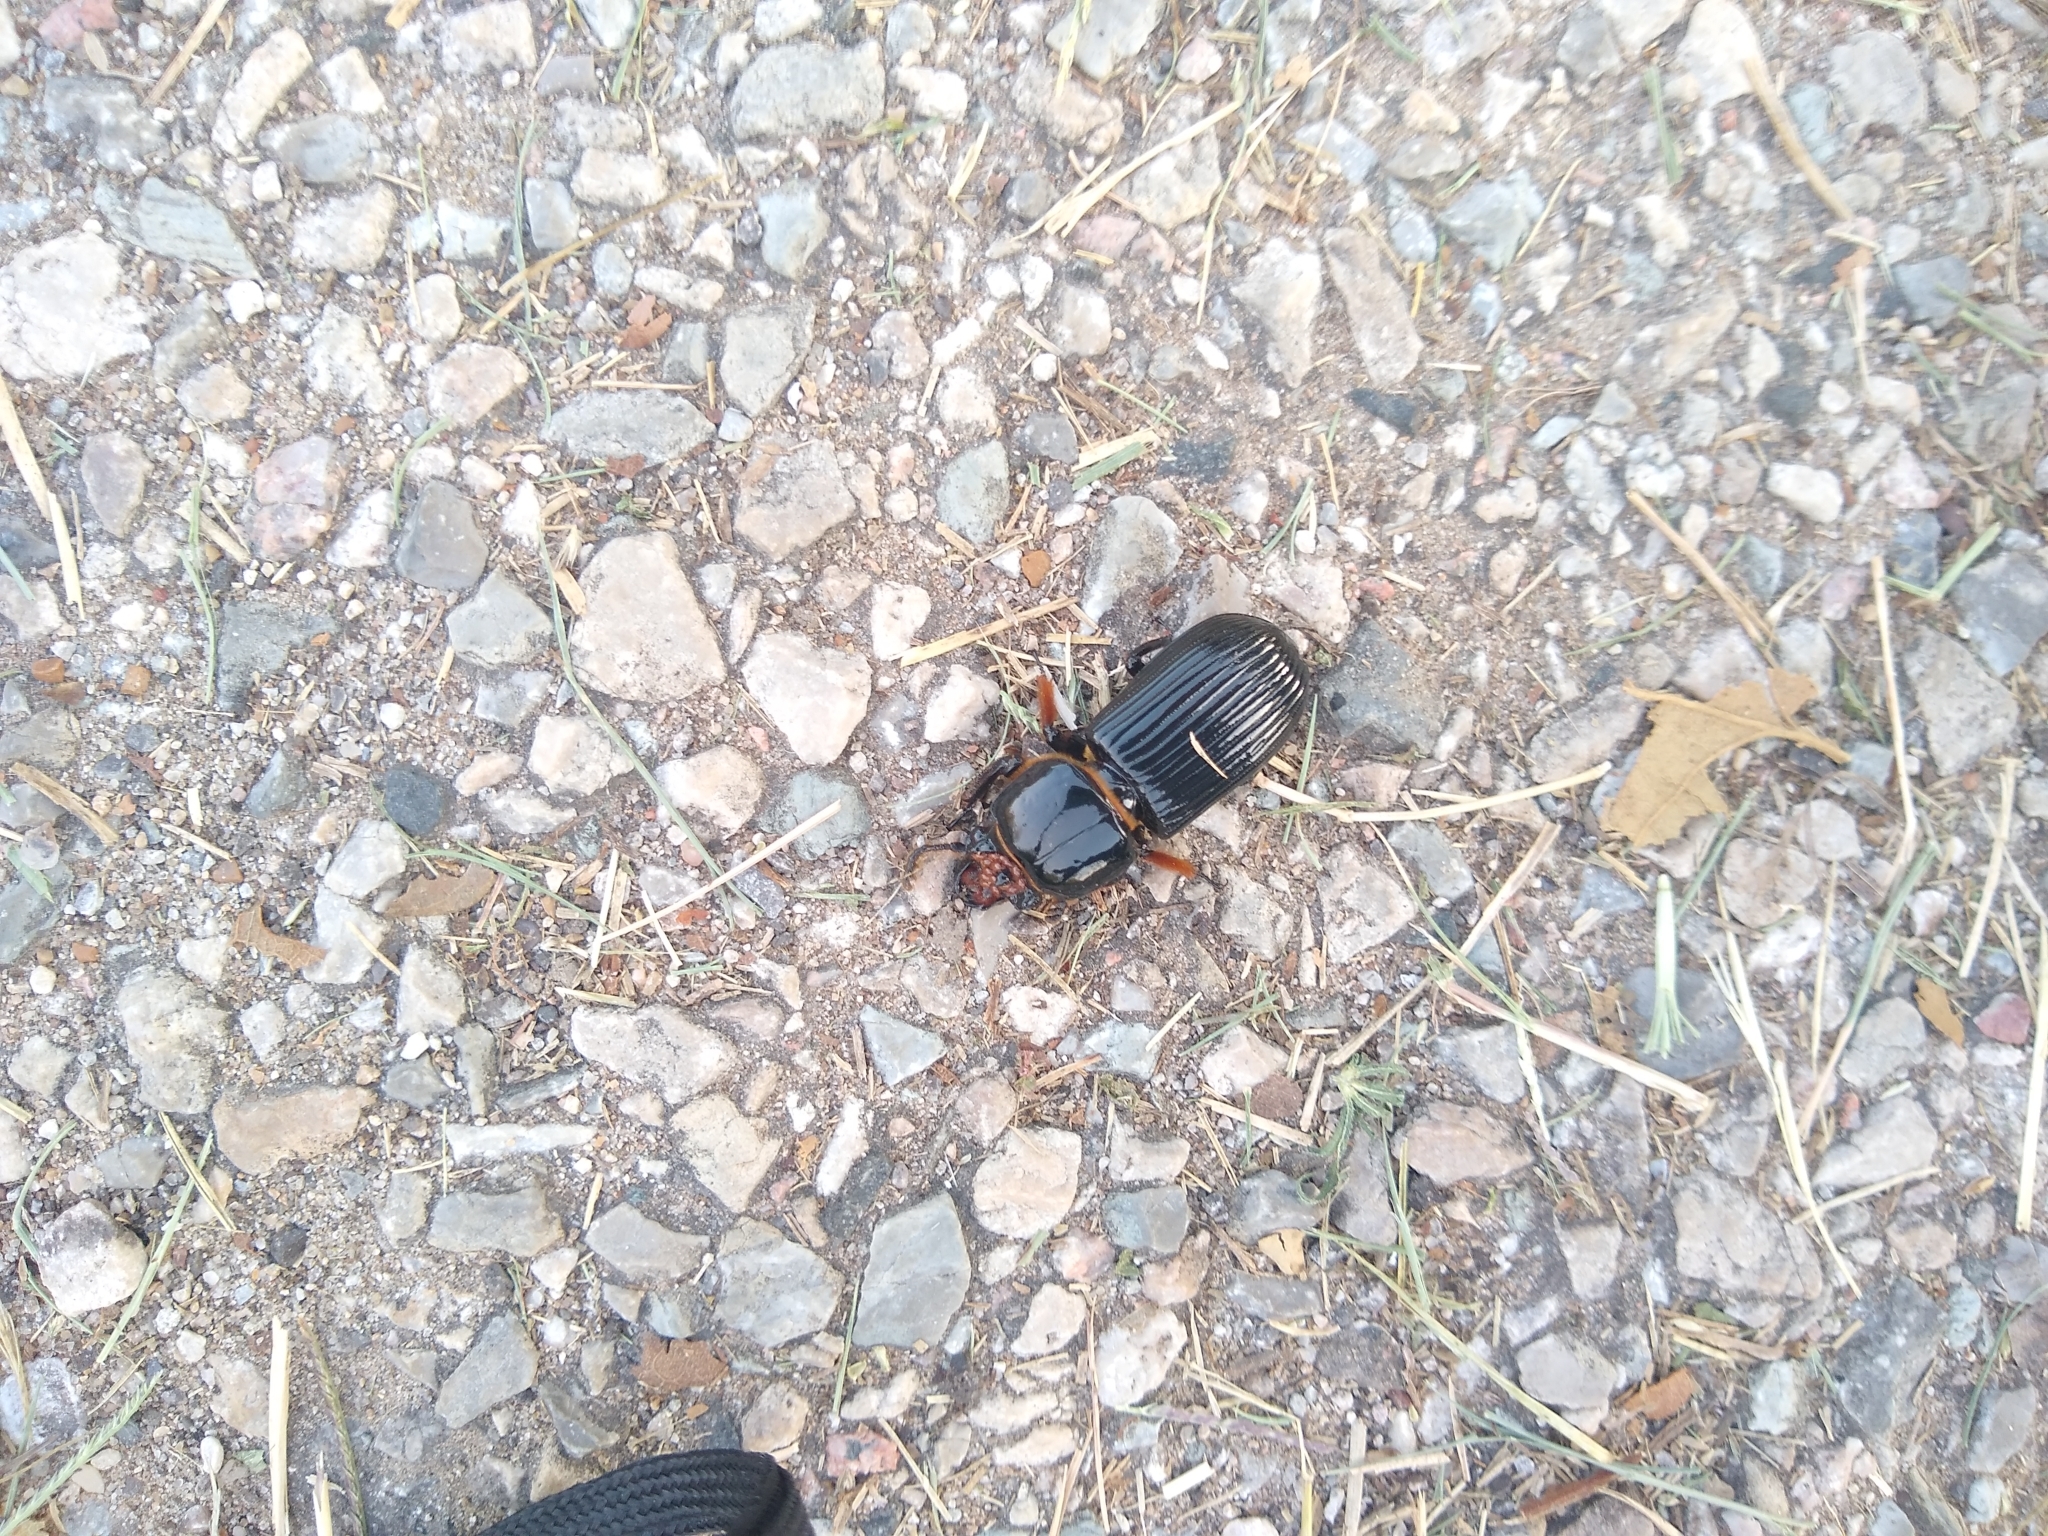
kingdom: Animalia
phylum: Arthropoda
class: Insecta
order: Coleoptera
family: Passalidae
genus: Odontotaenius
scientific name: Odontotaenius disjunctus
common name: Patent leather beetle
